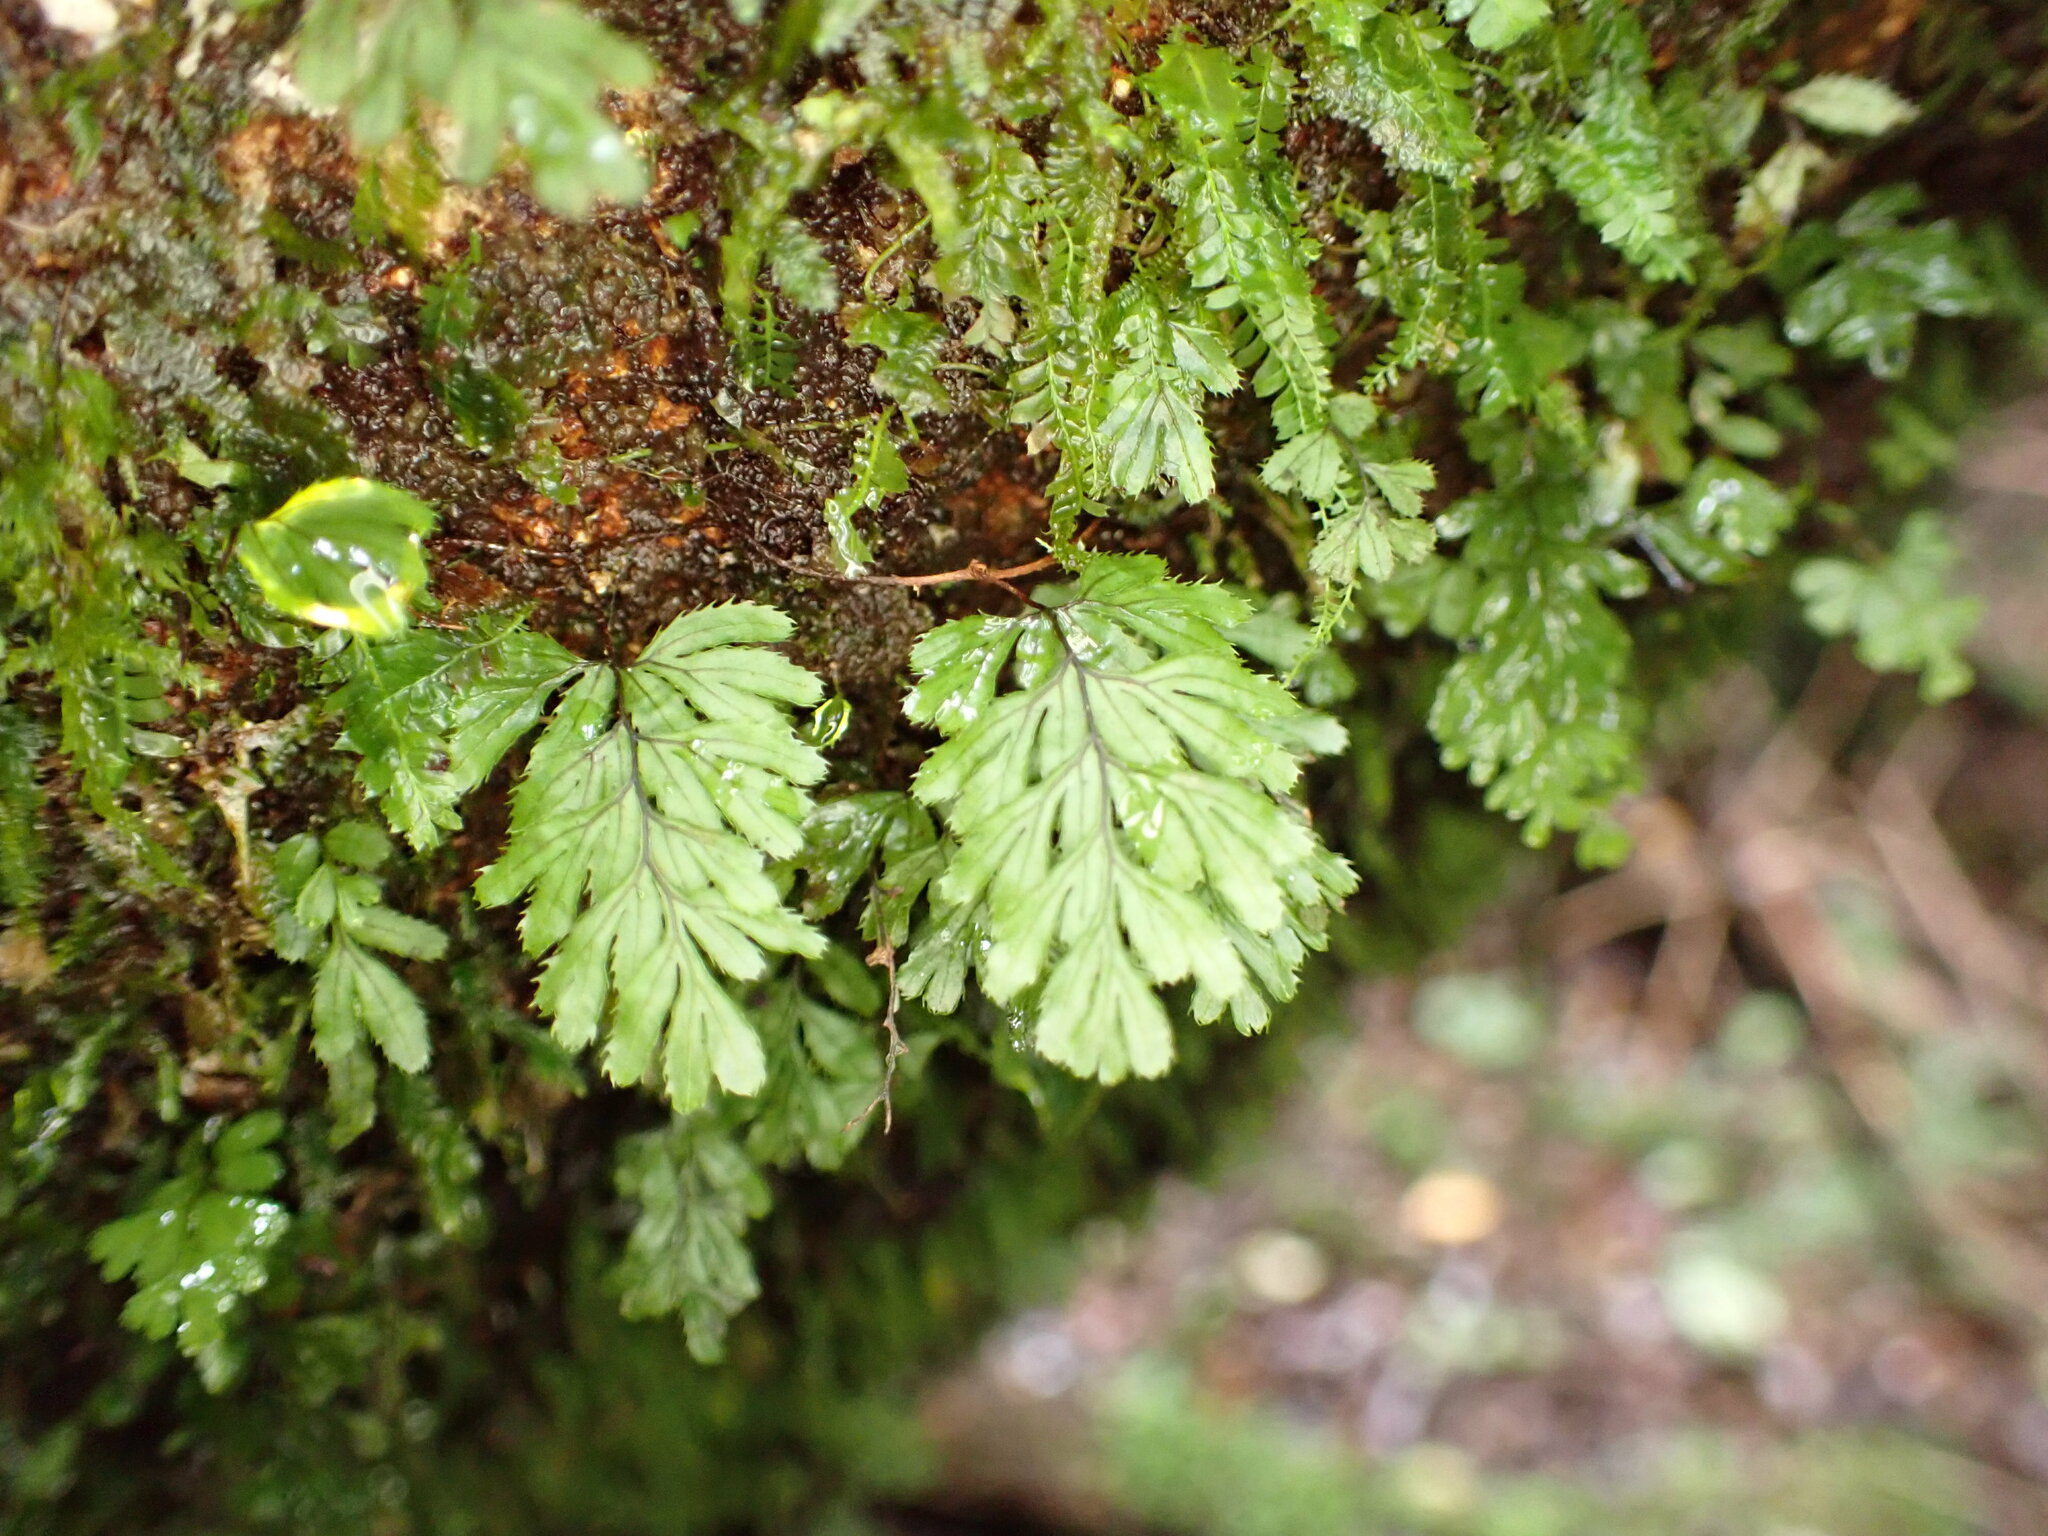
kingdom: Plantae
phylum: Tracheophyta
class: Polypodiopsida
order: Hymenophyllales
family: Hymenophyllaceae
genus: Hymenophyllum
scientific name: Hymenophyllum revolutum
